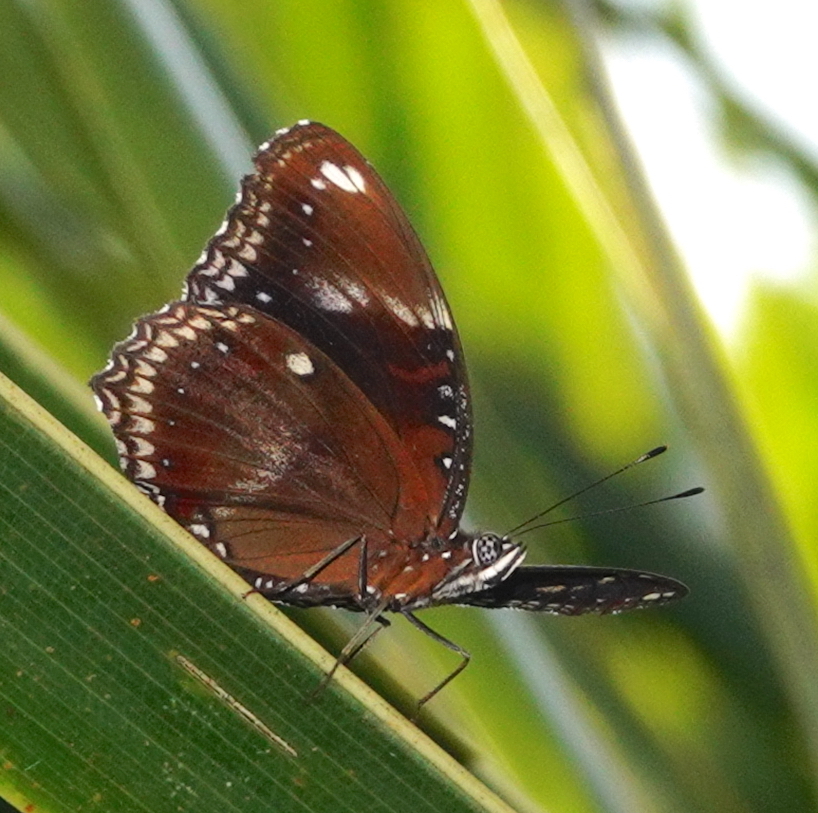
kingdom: Animalia
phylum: Arthropoda
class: Insecta
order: Lepidoptera
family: Nymphalidae
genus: Hypolimnas
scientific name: Hypolimnas bolina
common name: Great eggfly
